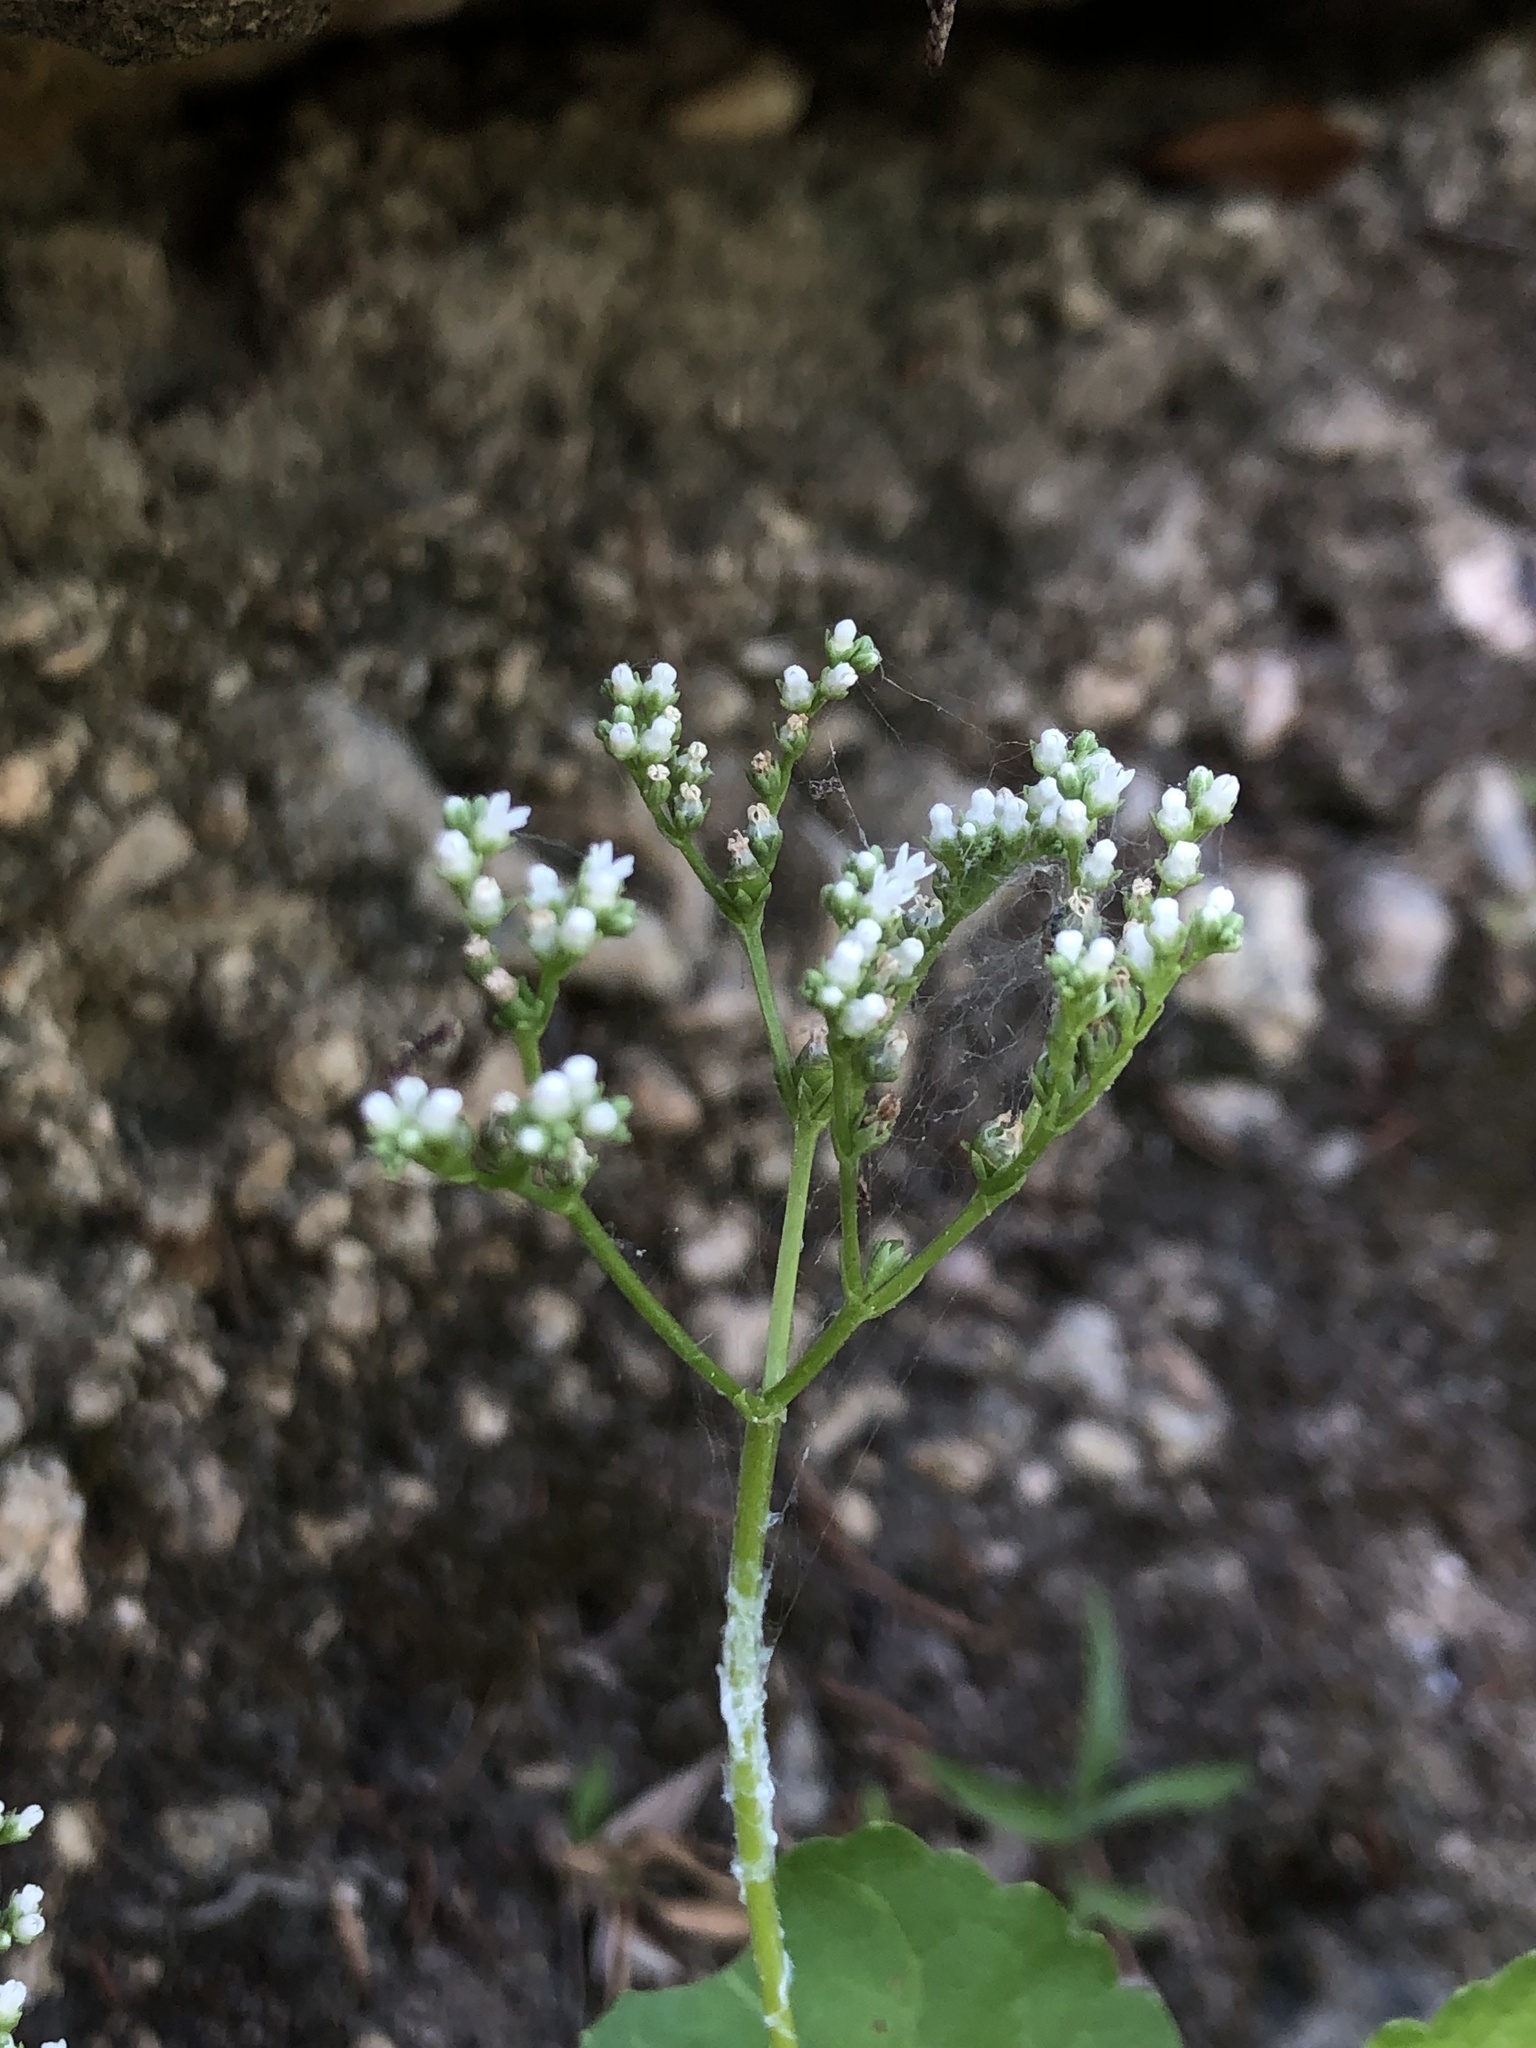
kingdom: Plantae
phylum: Tracheophyta
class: Magnoliopsida
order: Gentianales
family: Loganiaceae
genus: Mitreola
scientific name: Mitreola petiolata
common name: Lax hornpod
